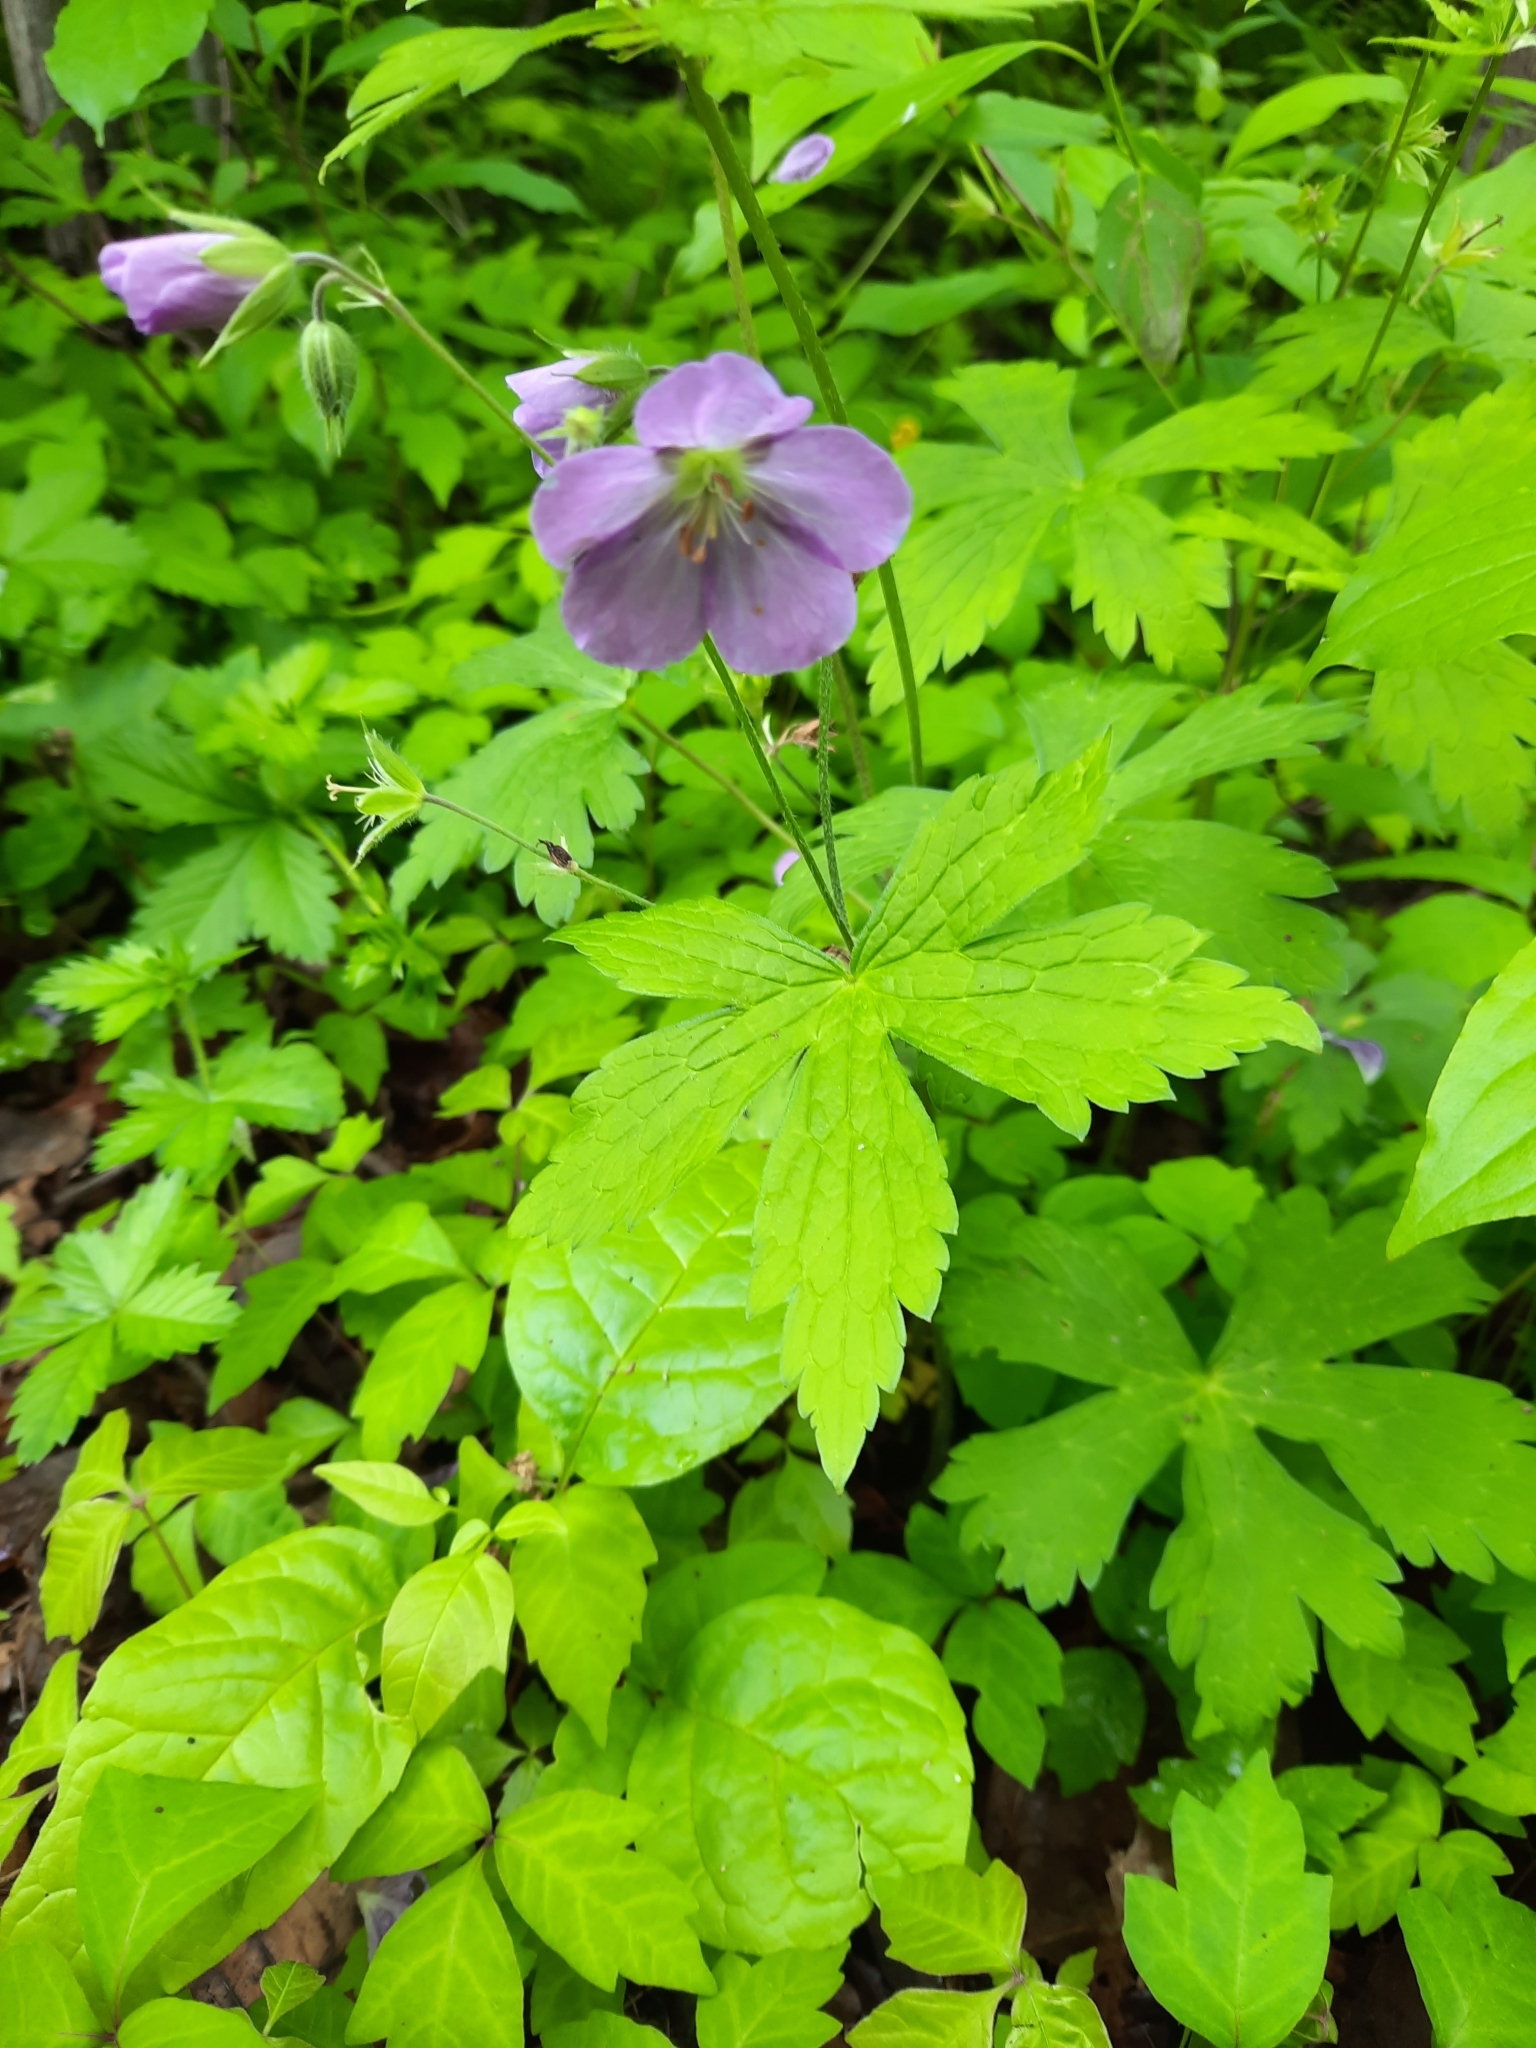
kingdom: Plantae
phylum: Tracheophyta
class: Magnoliopsida
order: Geraniales
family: Geraniaceae
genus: Geranium
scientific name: Geranium maculatum
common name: Spotted geranium
